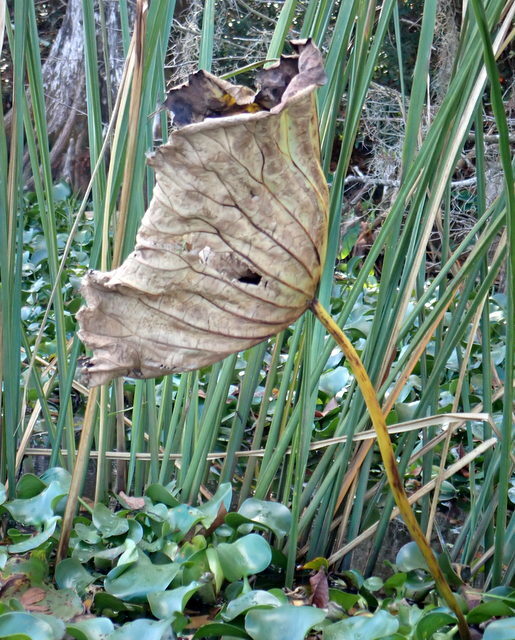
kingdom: Plantae
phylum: Tracheophyta
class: Magnoliopsida
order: Proteales
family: Nelumbonaceae
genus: Nelumbo
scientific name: Nelumbo lutea
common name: American lotus
